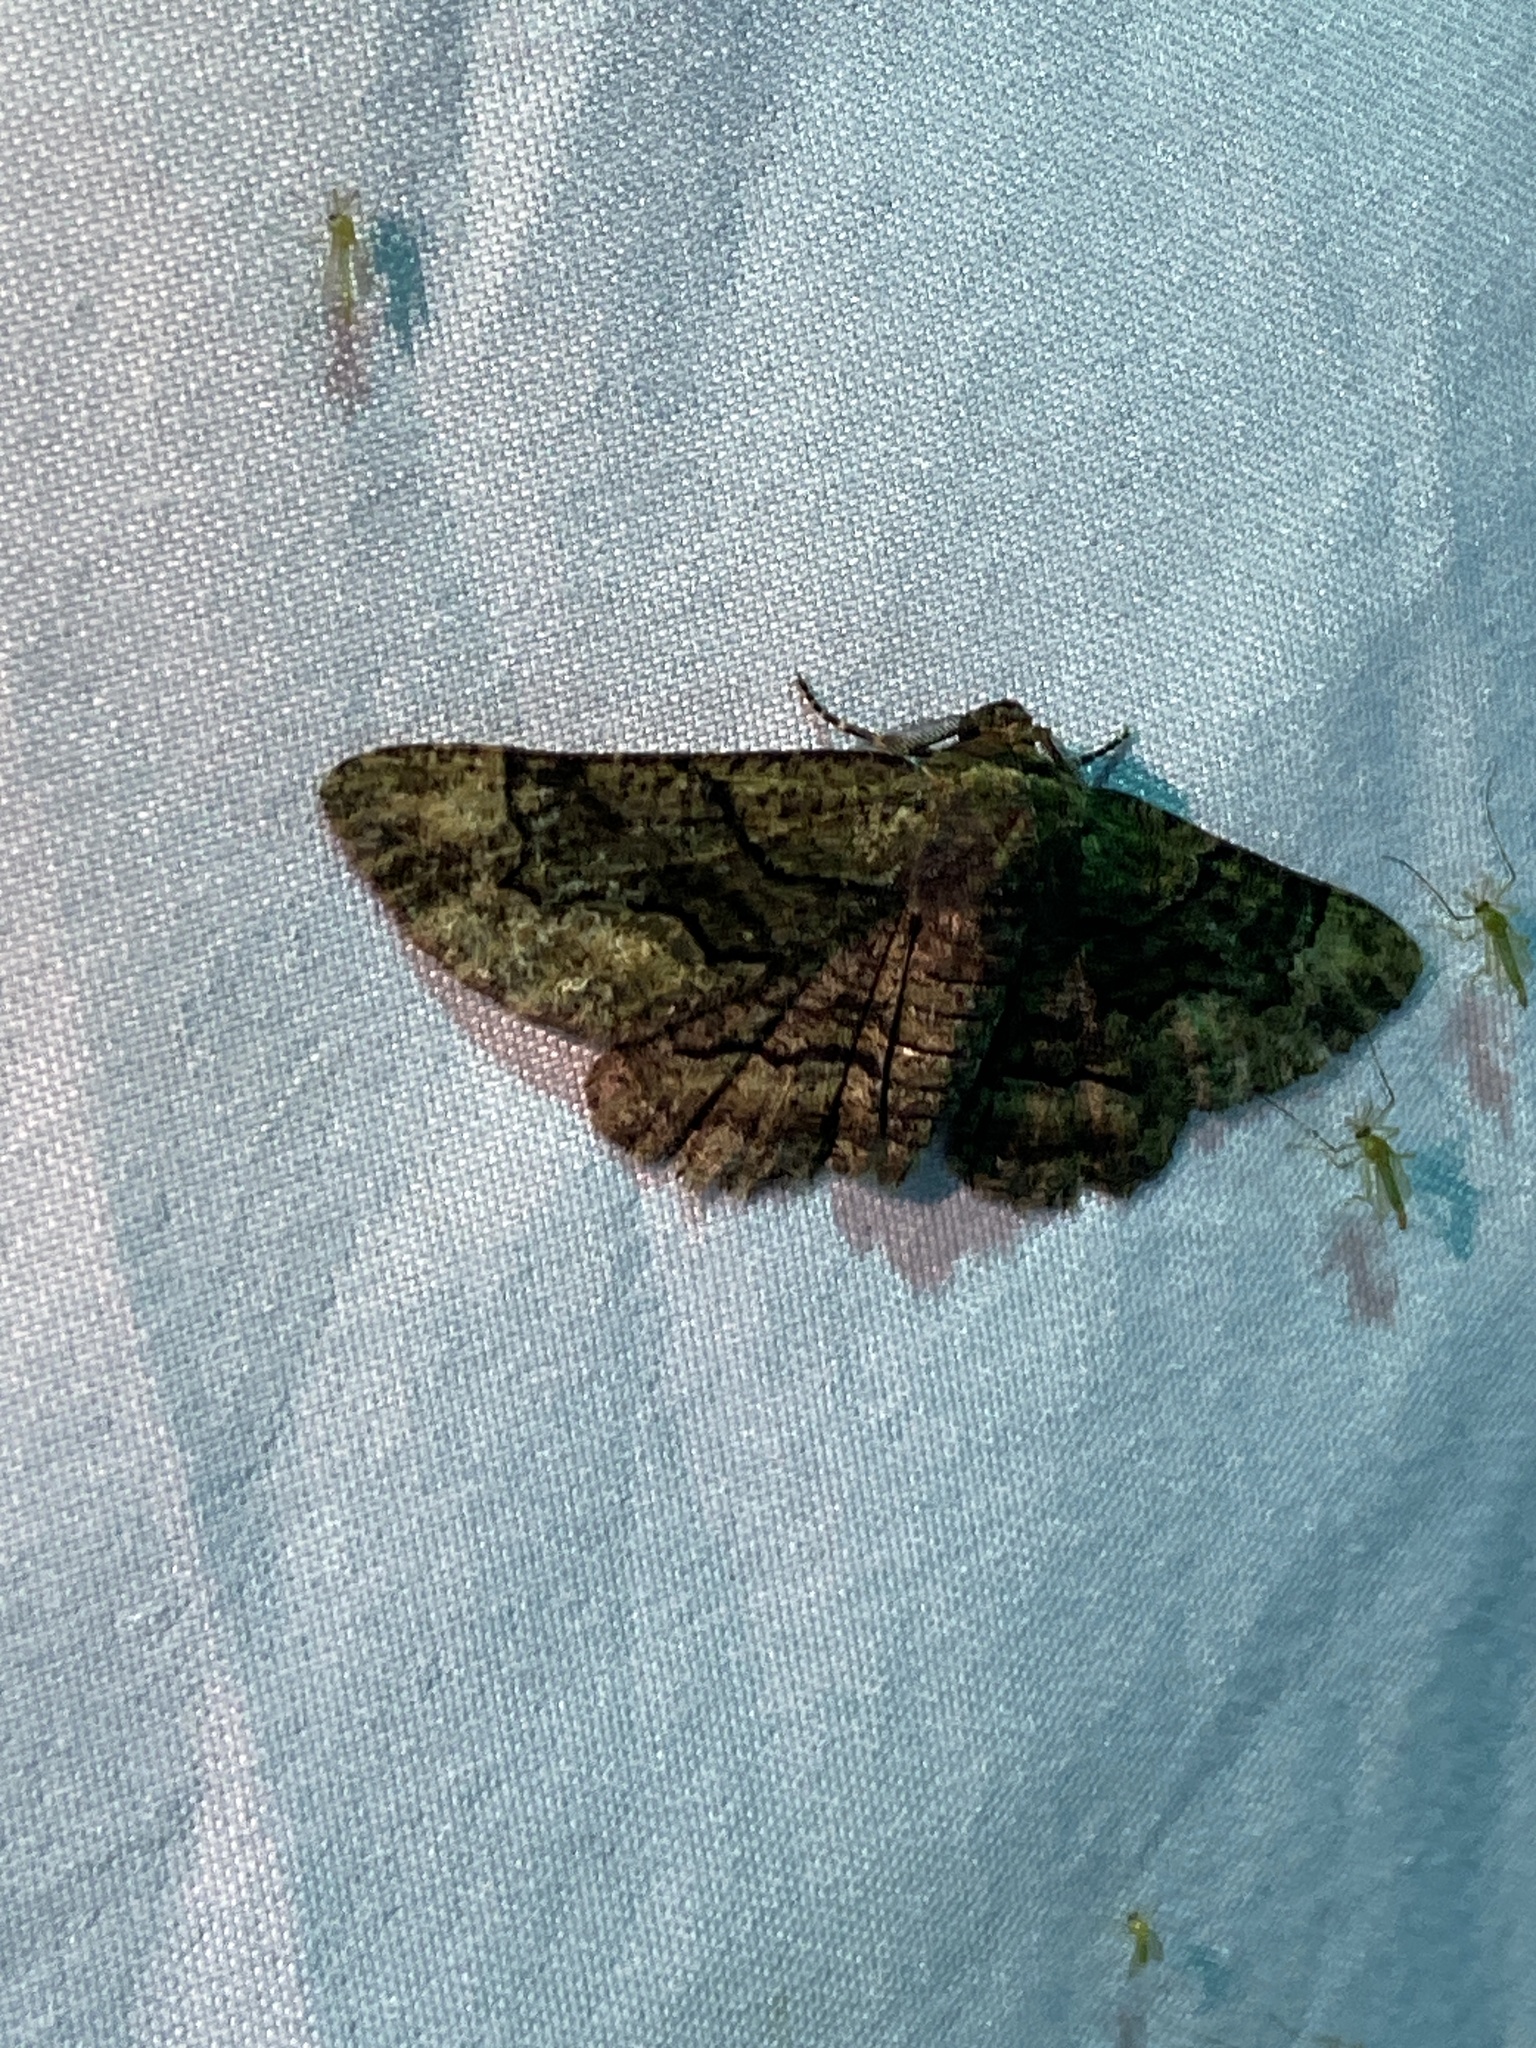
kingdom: Animalia
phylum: Arthropoda
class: Insecta
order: Lepidoptera
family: Geometridae
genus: Phaeoura
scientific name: Phaeoura quernaria
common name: Oak beauty
